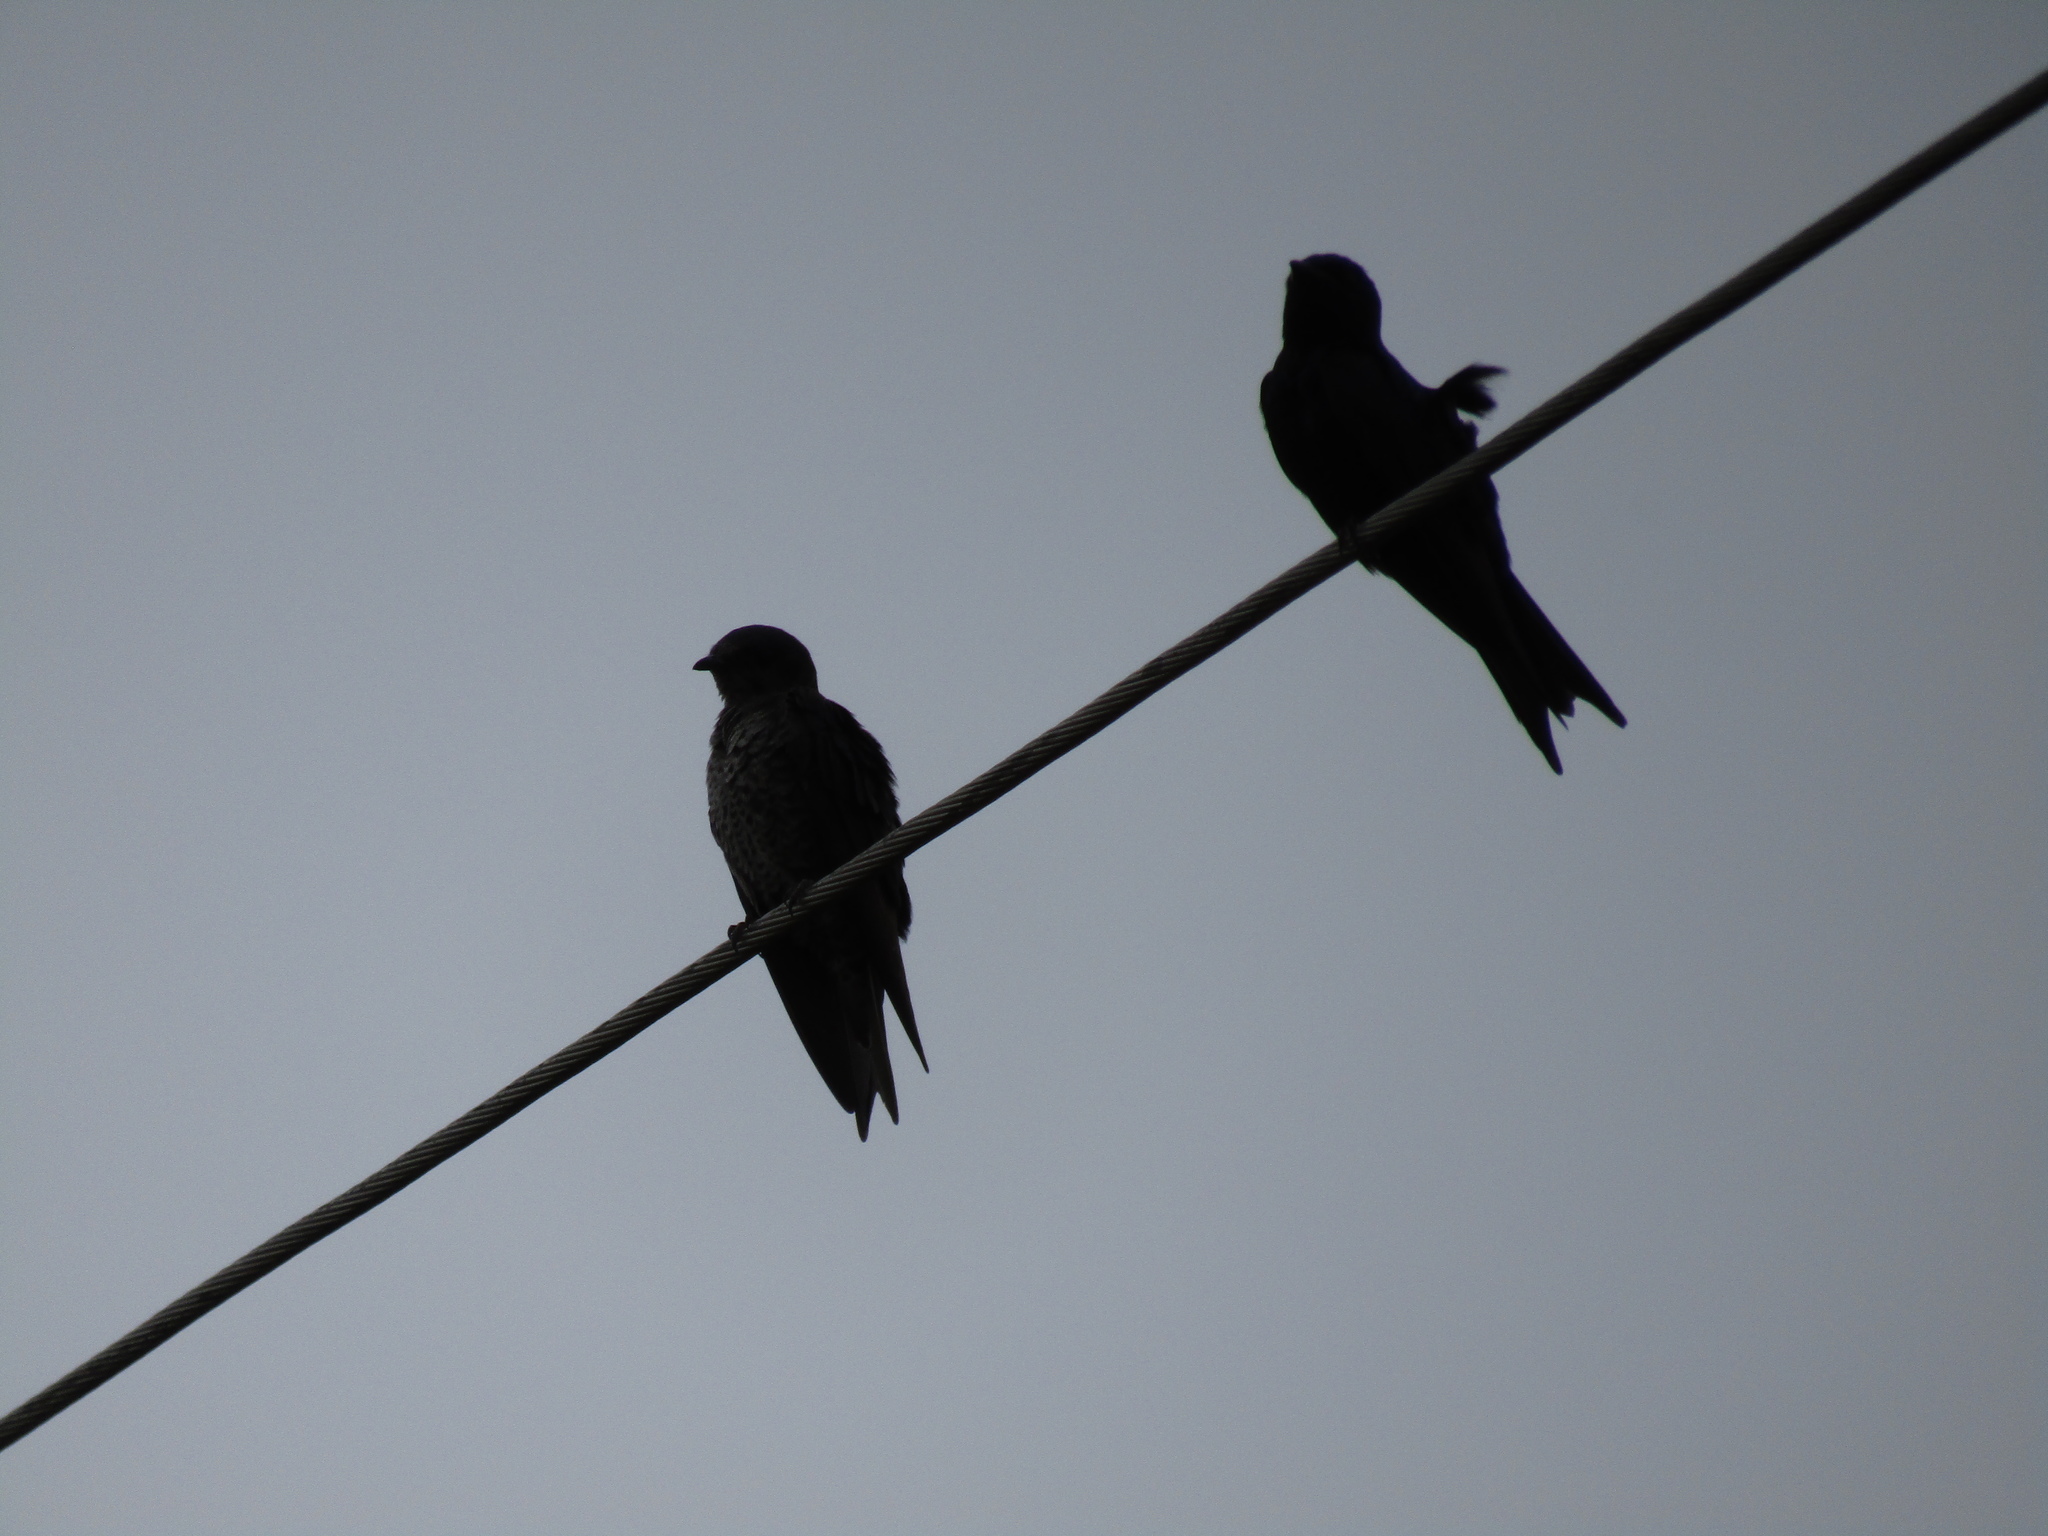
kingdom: Animalia
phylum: Chordata
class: Aves
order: Passeriformes
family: Hirundinidae
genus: Progne
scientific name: Progne elegans
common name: Southern martin
